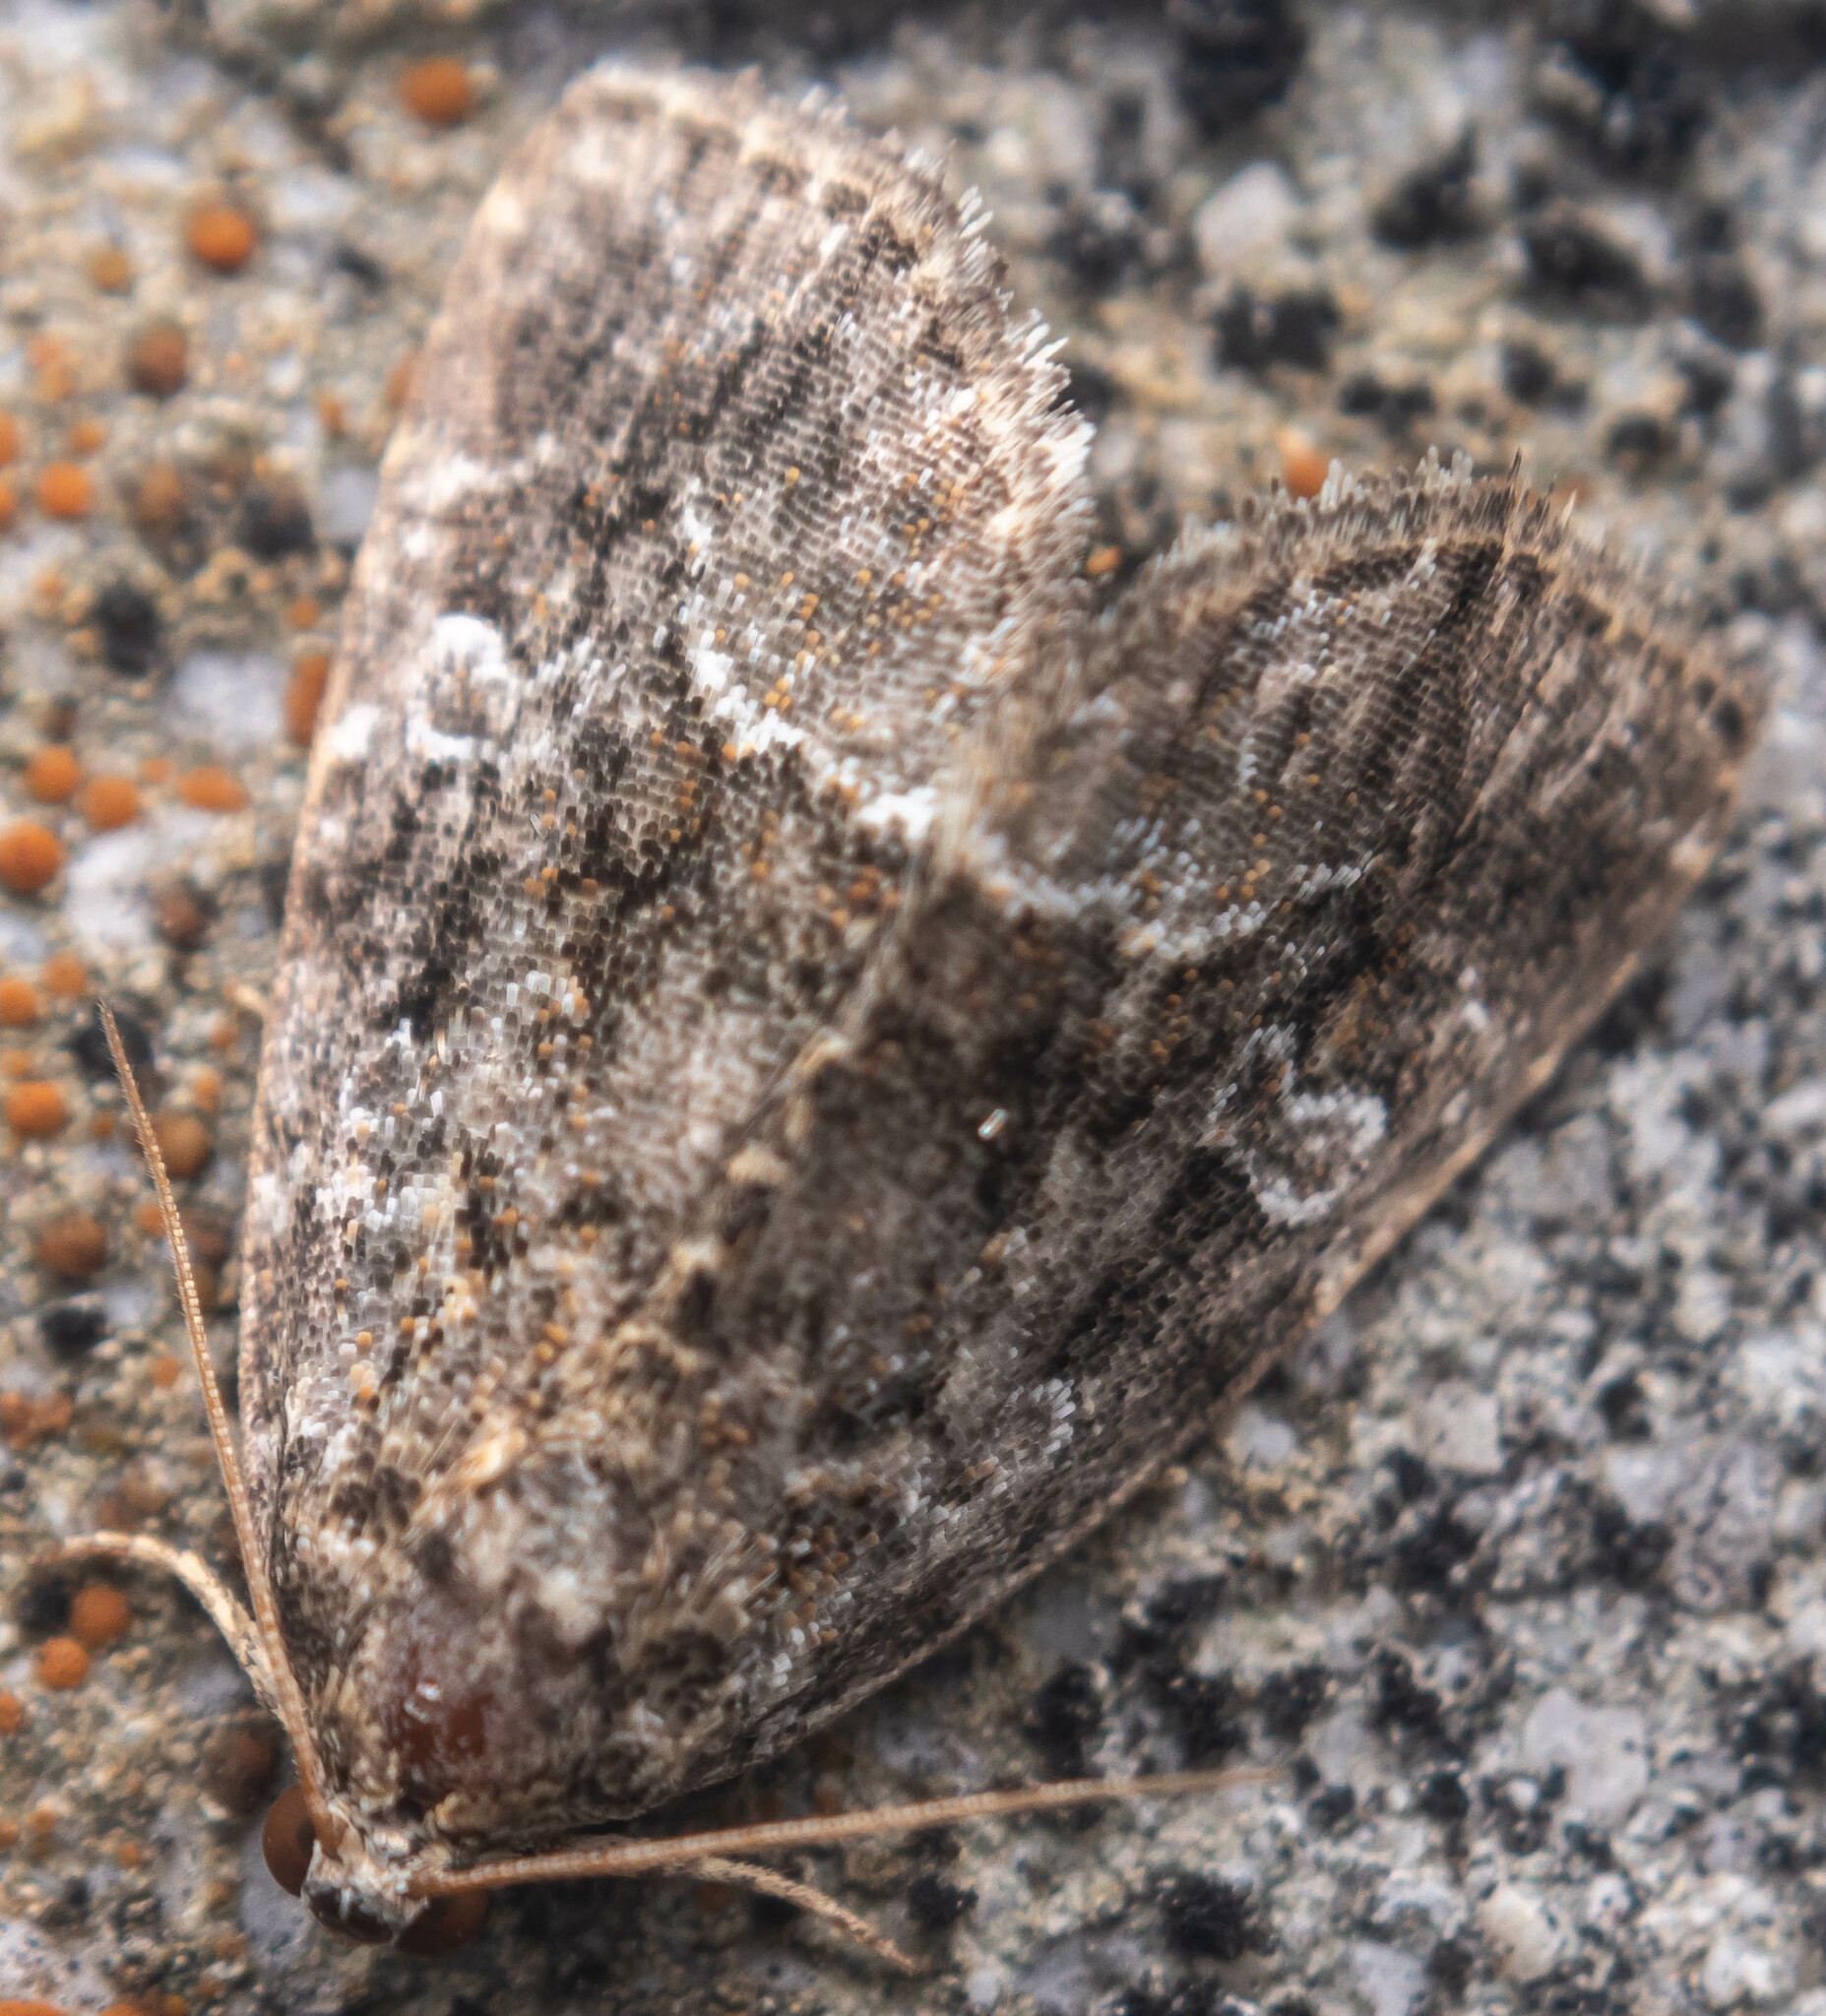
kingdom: Animalia
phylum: Arthropoda
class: Insecta
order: Lepidoptera
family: Noctuidae
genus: Deltote
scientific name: Deltote pygarga
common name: Marbled white spot
